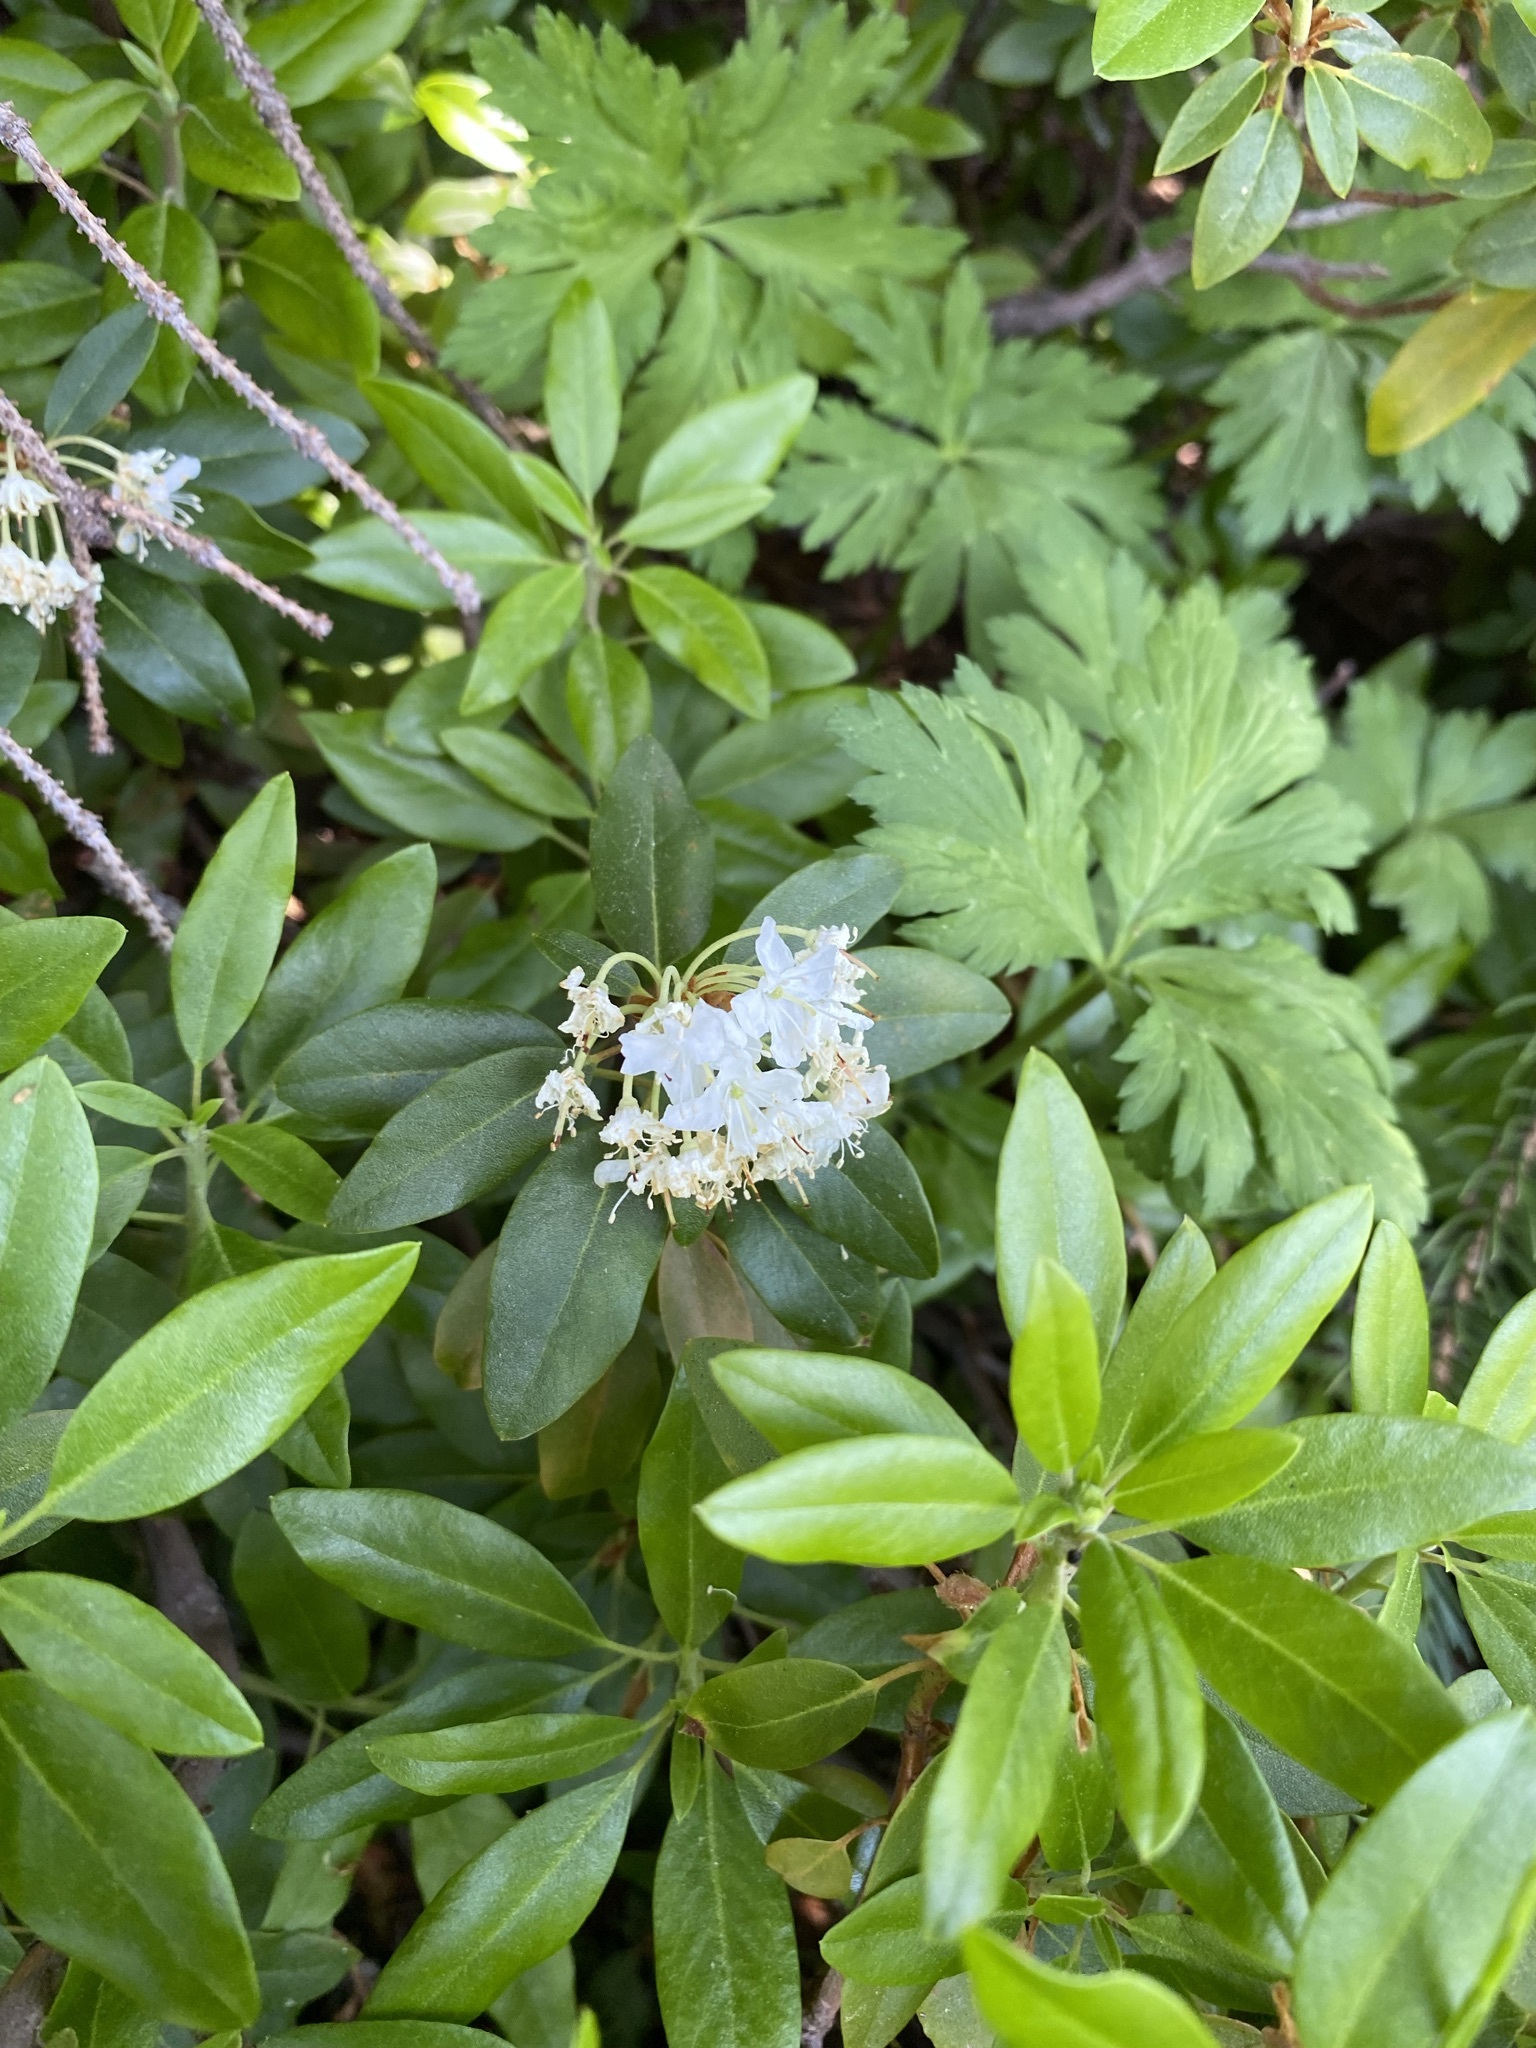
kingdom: Plantae
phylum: Tracheophyta
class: Magnoliopsida
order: Ericales
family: Ericaceae
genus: Rhododendron
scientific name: Rhododendron columbianum
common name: Western labrador tea
